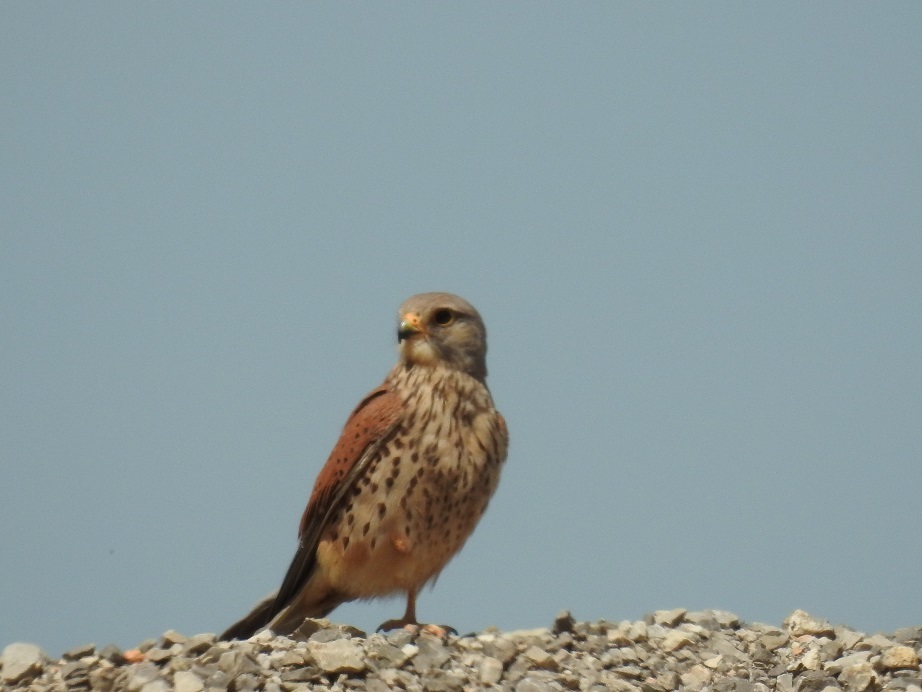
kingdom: Animalia
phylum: Chordata
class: Aves
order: Falconiformes
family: Falconidae
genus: Falco
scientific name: Falco tinnunculus
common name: Common kestrel
